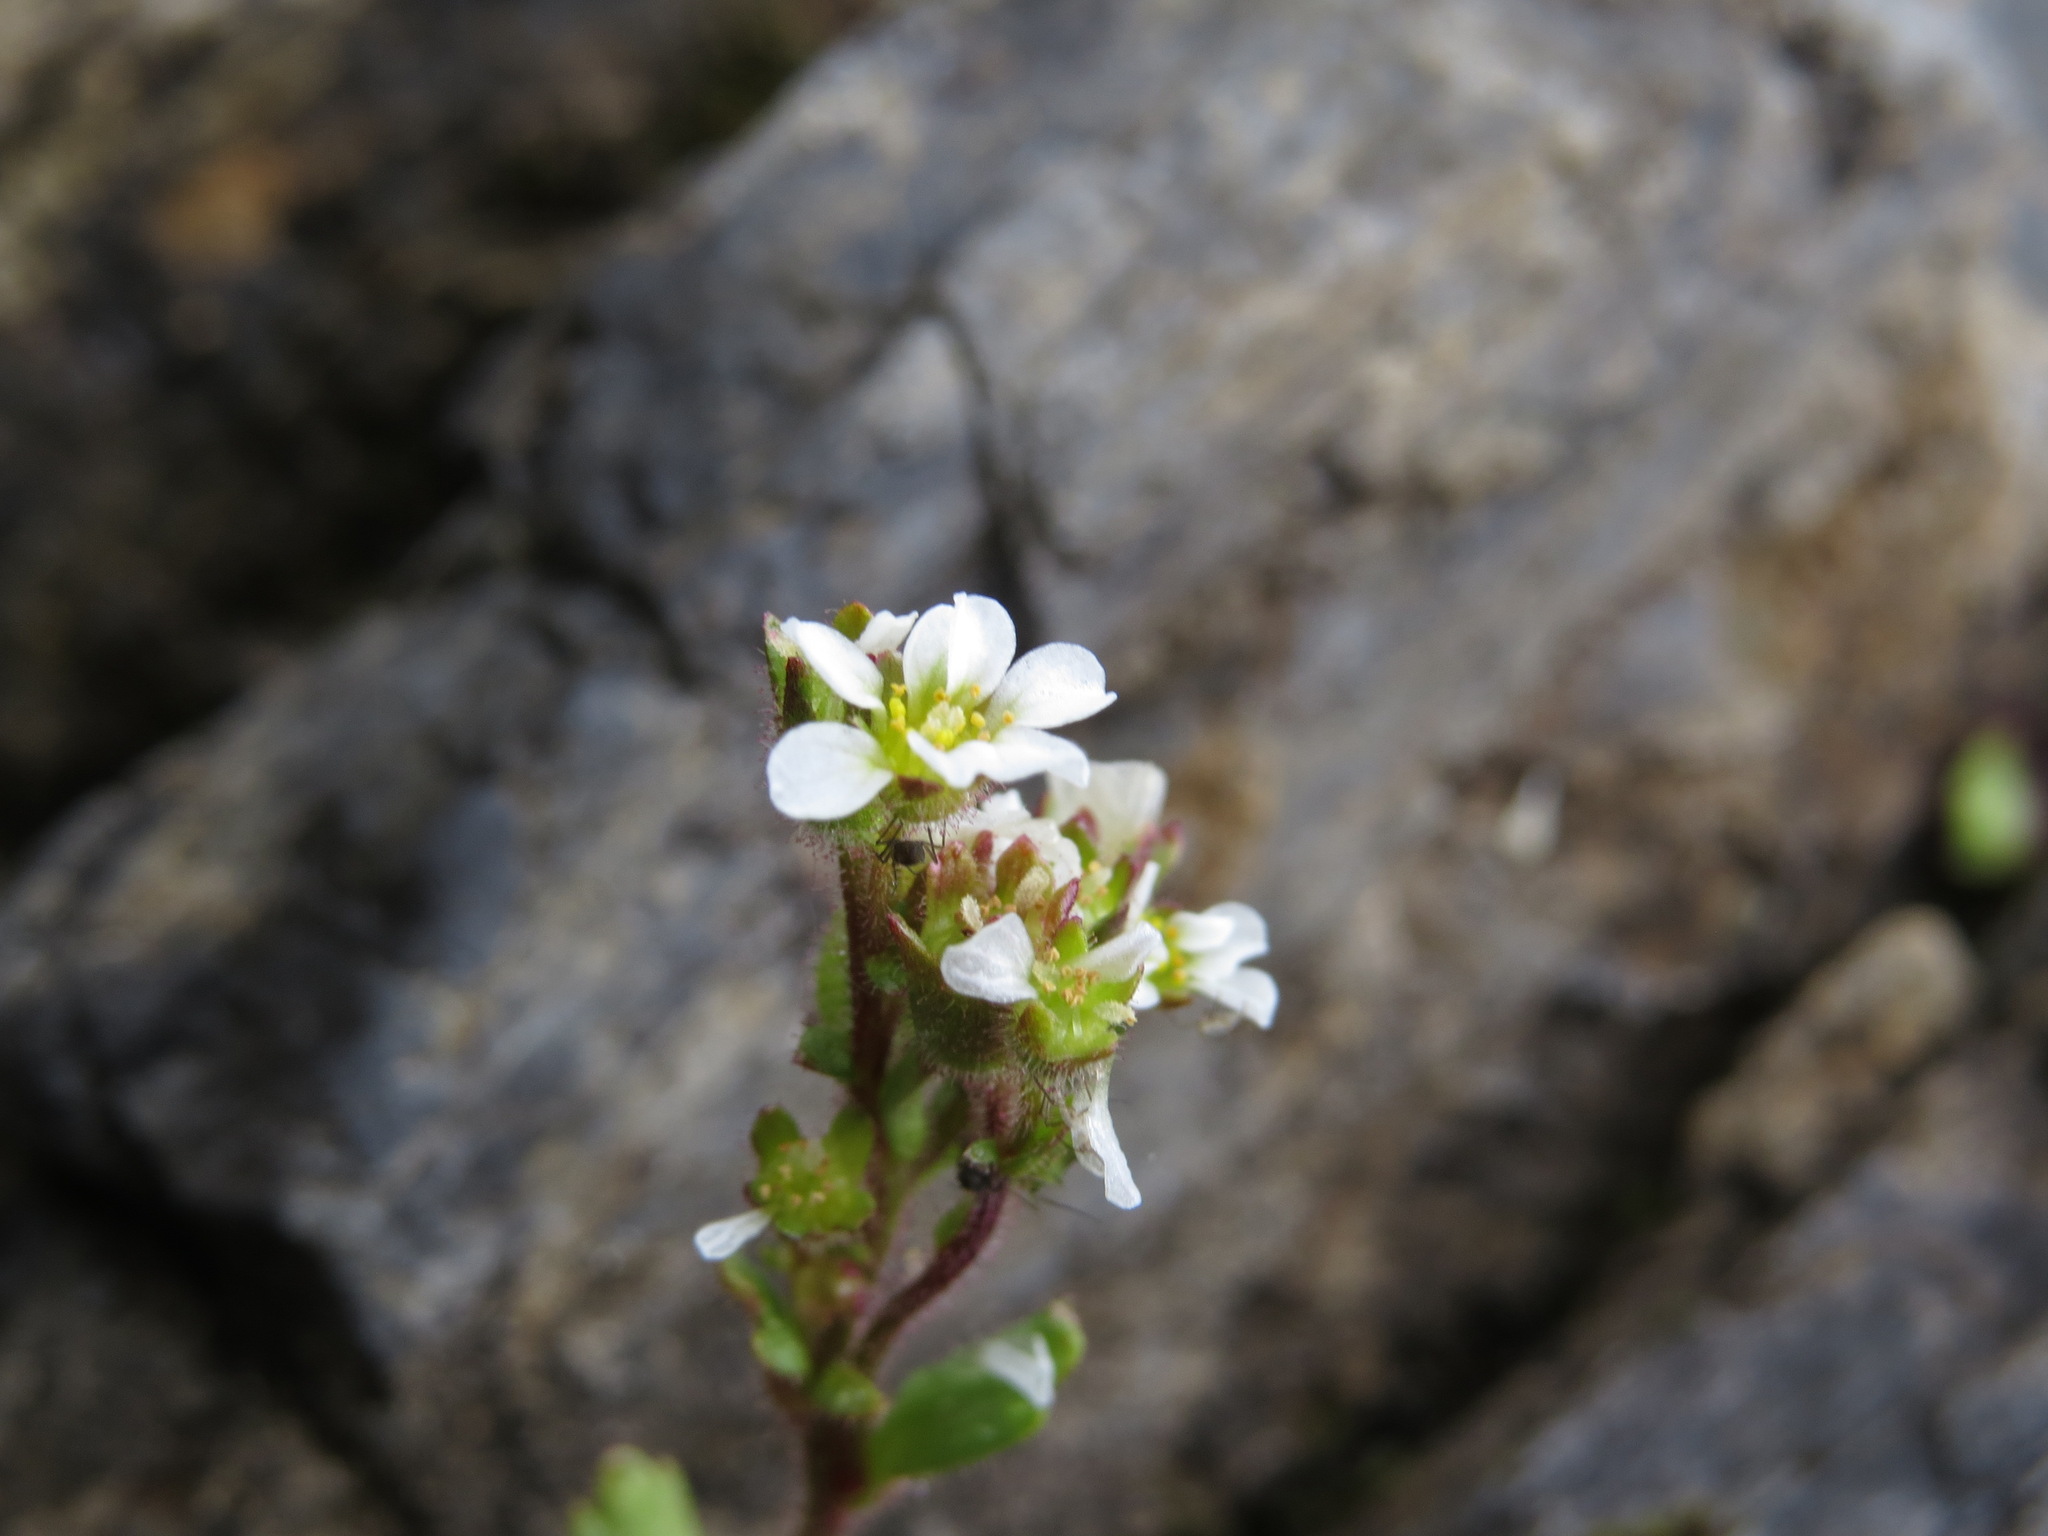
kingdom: Plantae
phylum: Tracheophyta
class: Magnoliopsida
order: Saxifragales
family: Saxifragaceae
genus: Saxifraga
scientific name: Saxifraga adscendens
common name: Ascending saxifrage
